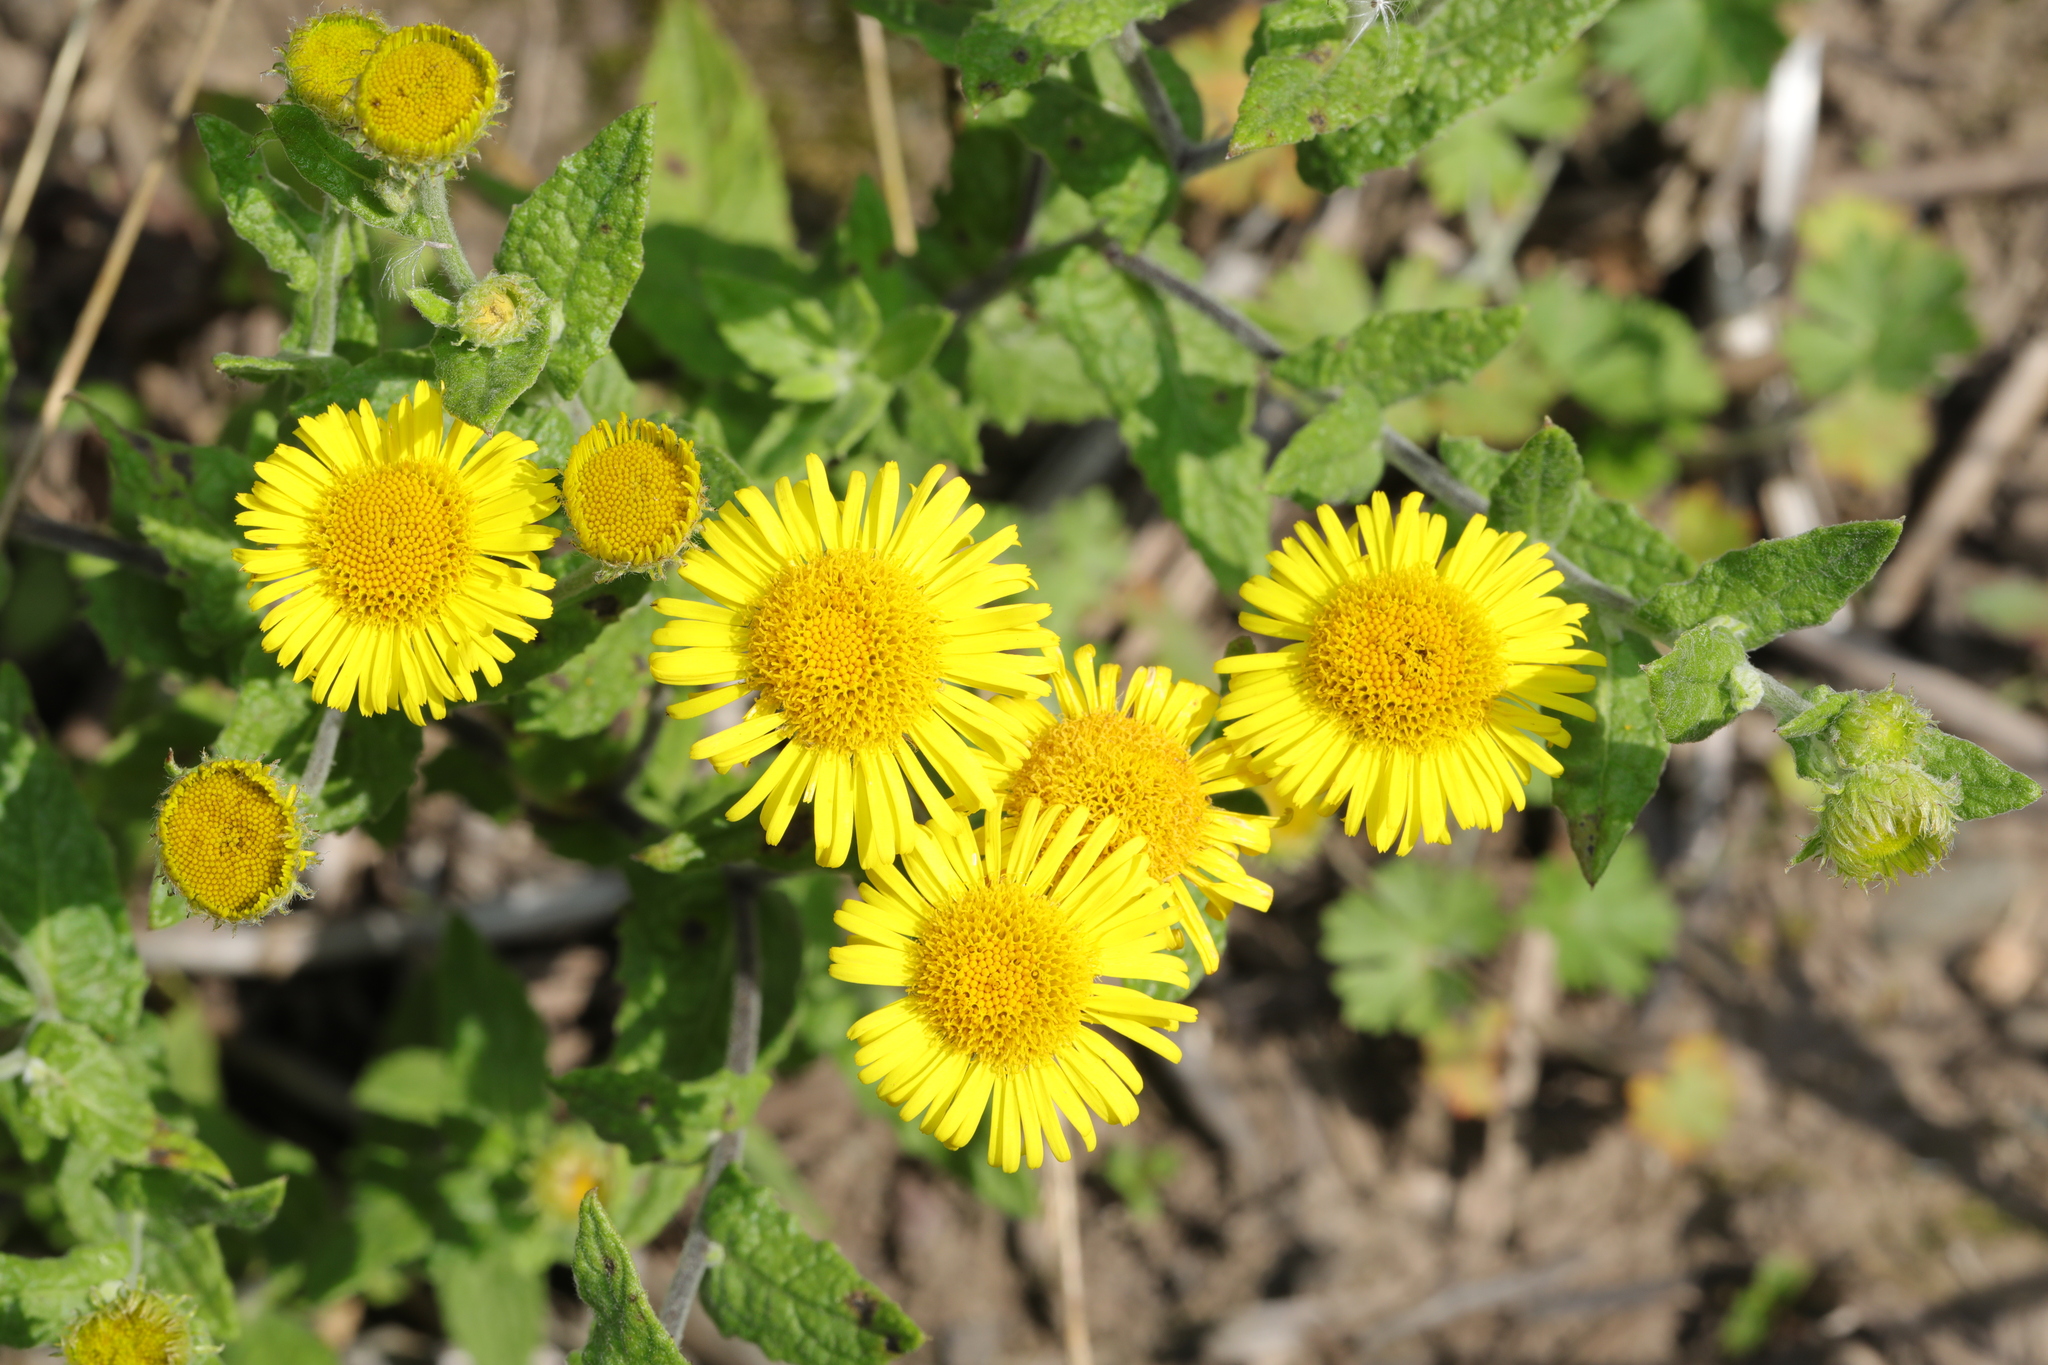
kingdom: Plantae
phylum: Tracheophyta
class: Magnoliopsida
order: Asterales
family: Asteraceae
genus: Pulicaria
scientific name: Pulicaria dysenterica
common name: Common fleabane
